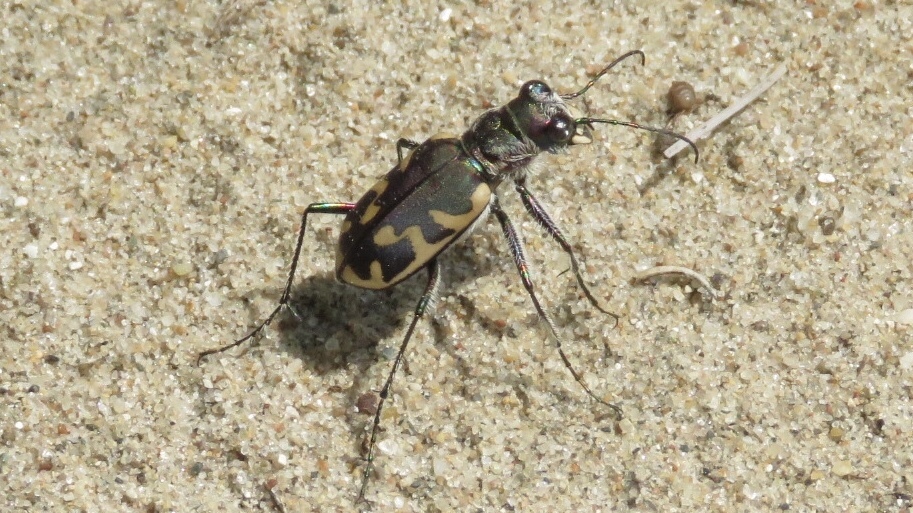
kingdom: Animalia
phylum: Arthropoda
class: Insecta
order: Coleoptera
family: Carabidae
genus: Cicindela
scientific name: Cicindela formosa
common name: Big sand tiger beetle
